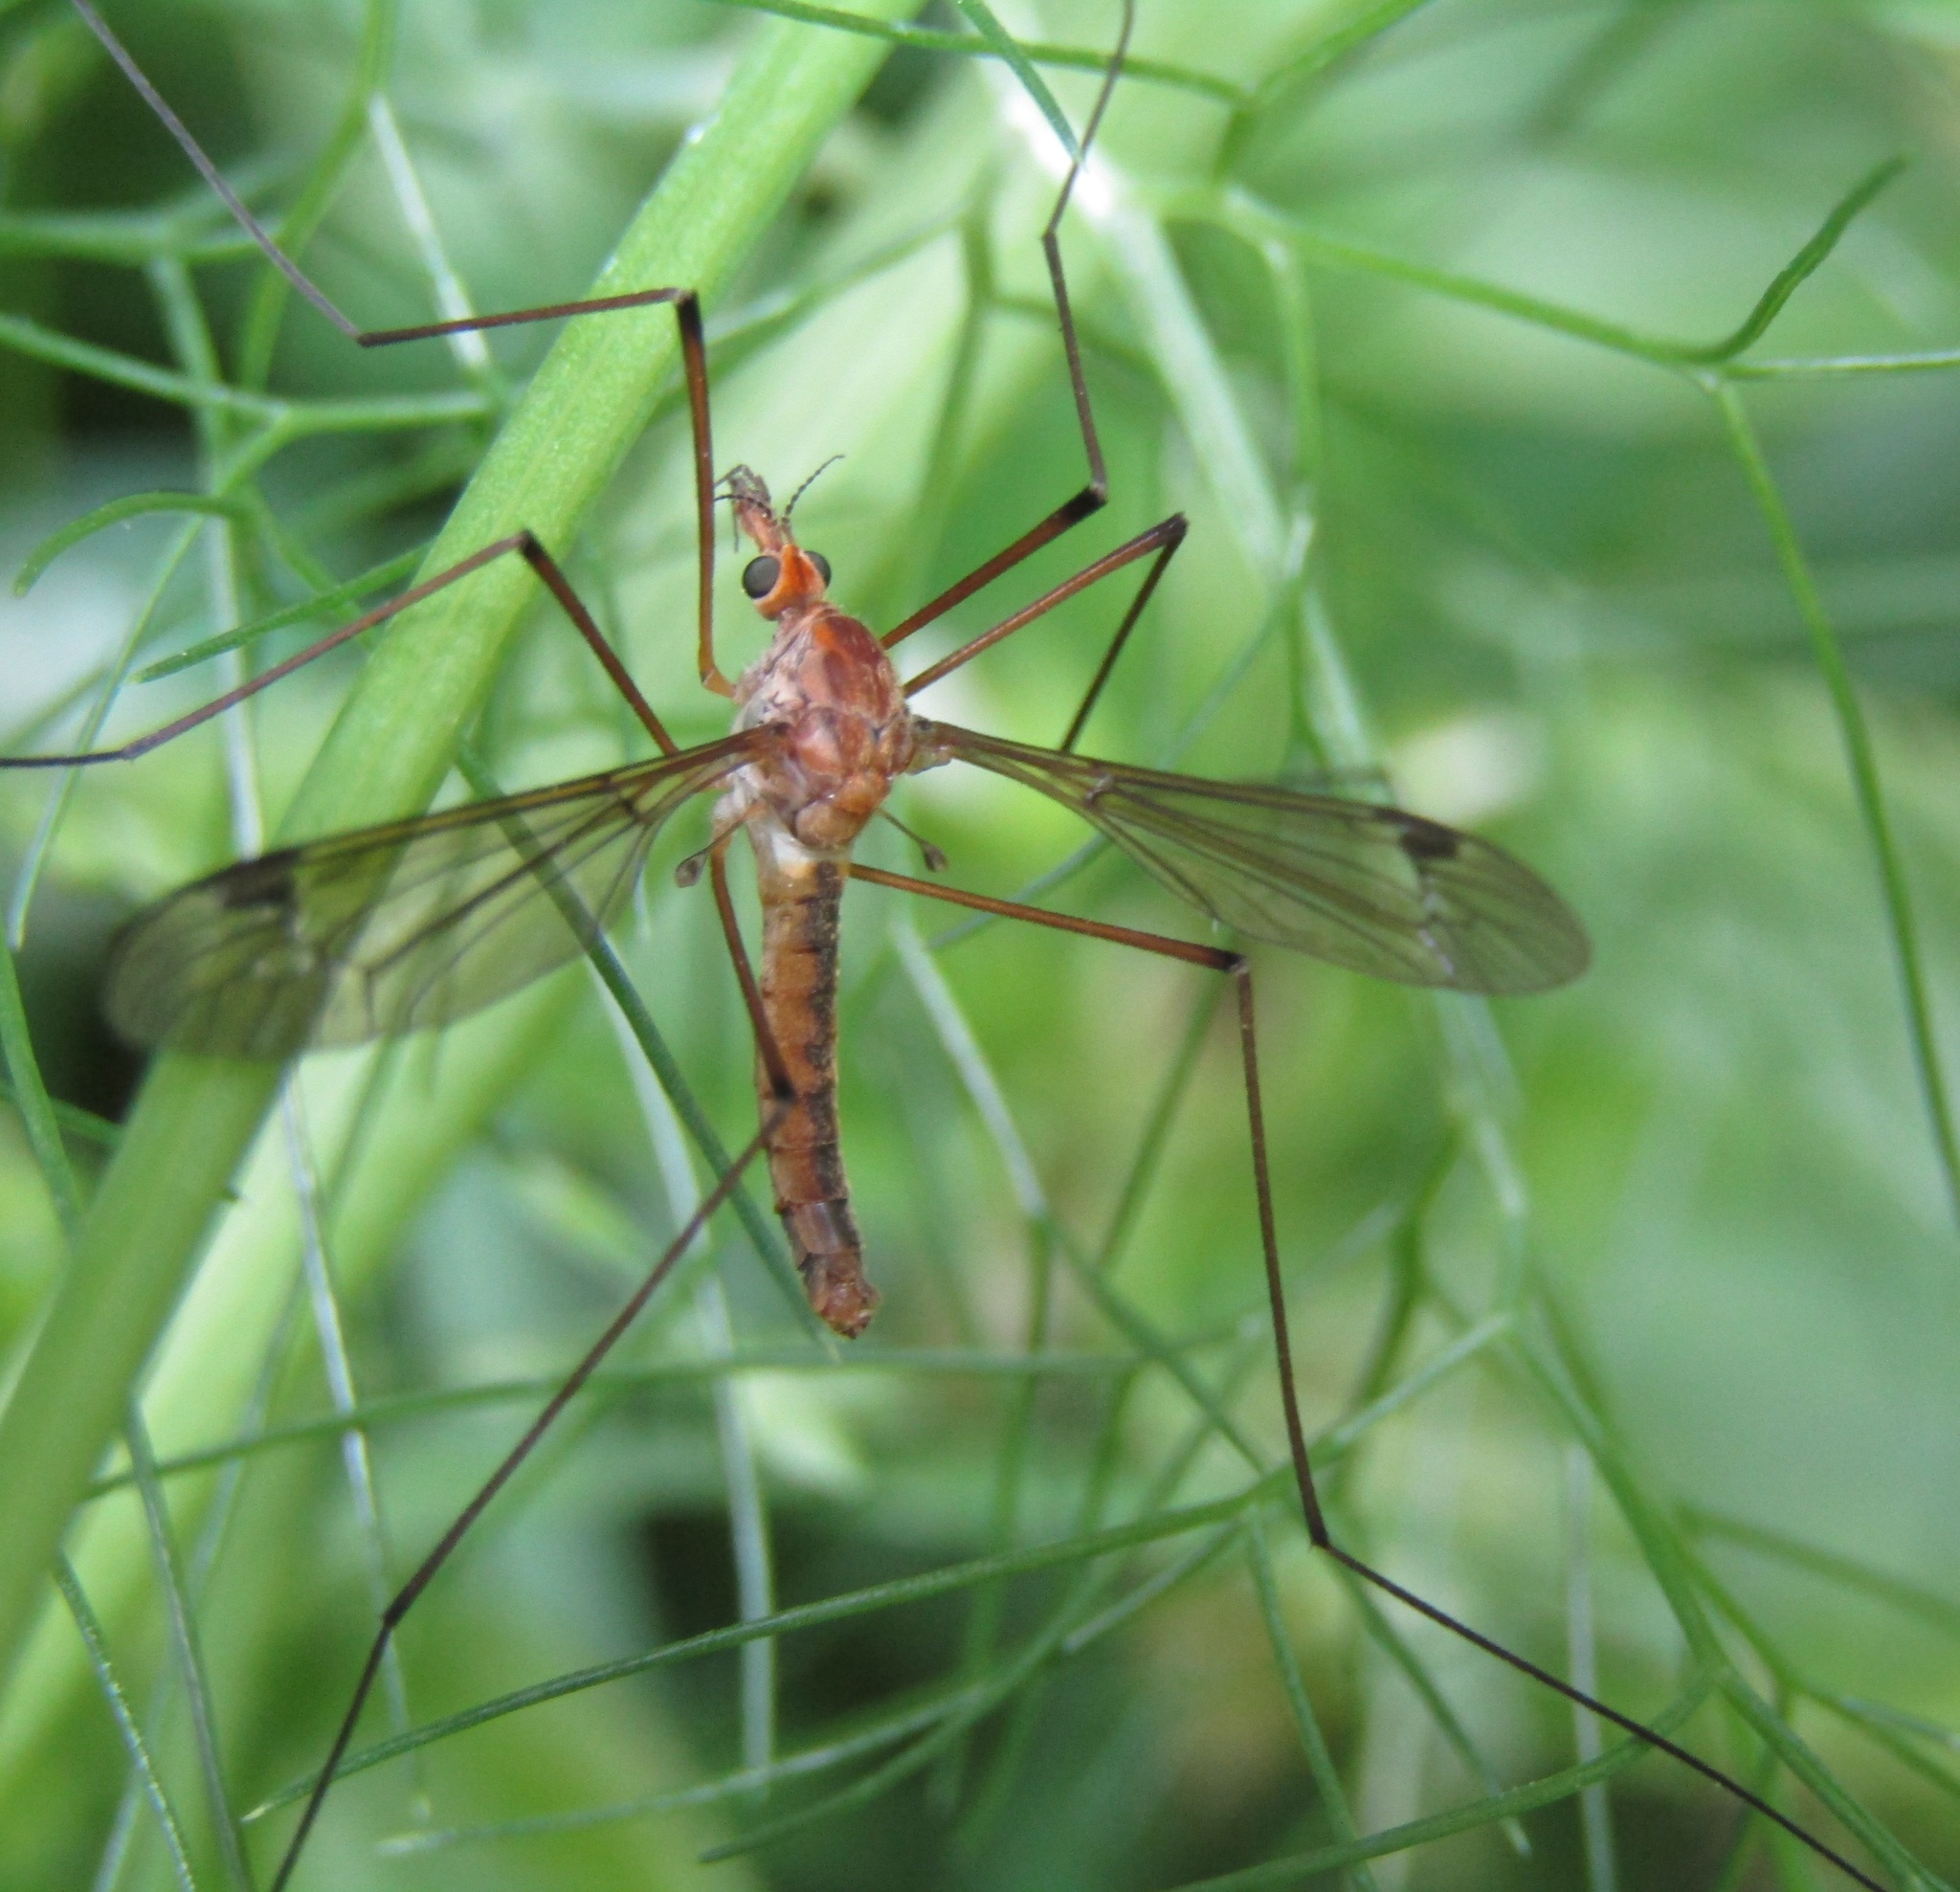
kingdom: Animalia
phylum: Arthropoda
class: Insecta
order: Diptera
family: Tipulidae
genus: Leptotarsus
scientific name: Leptotarsus dichroithorax
